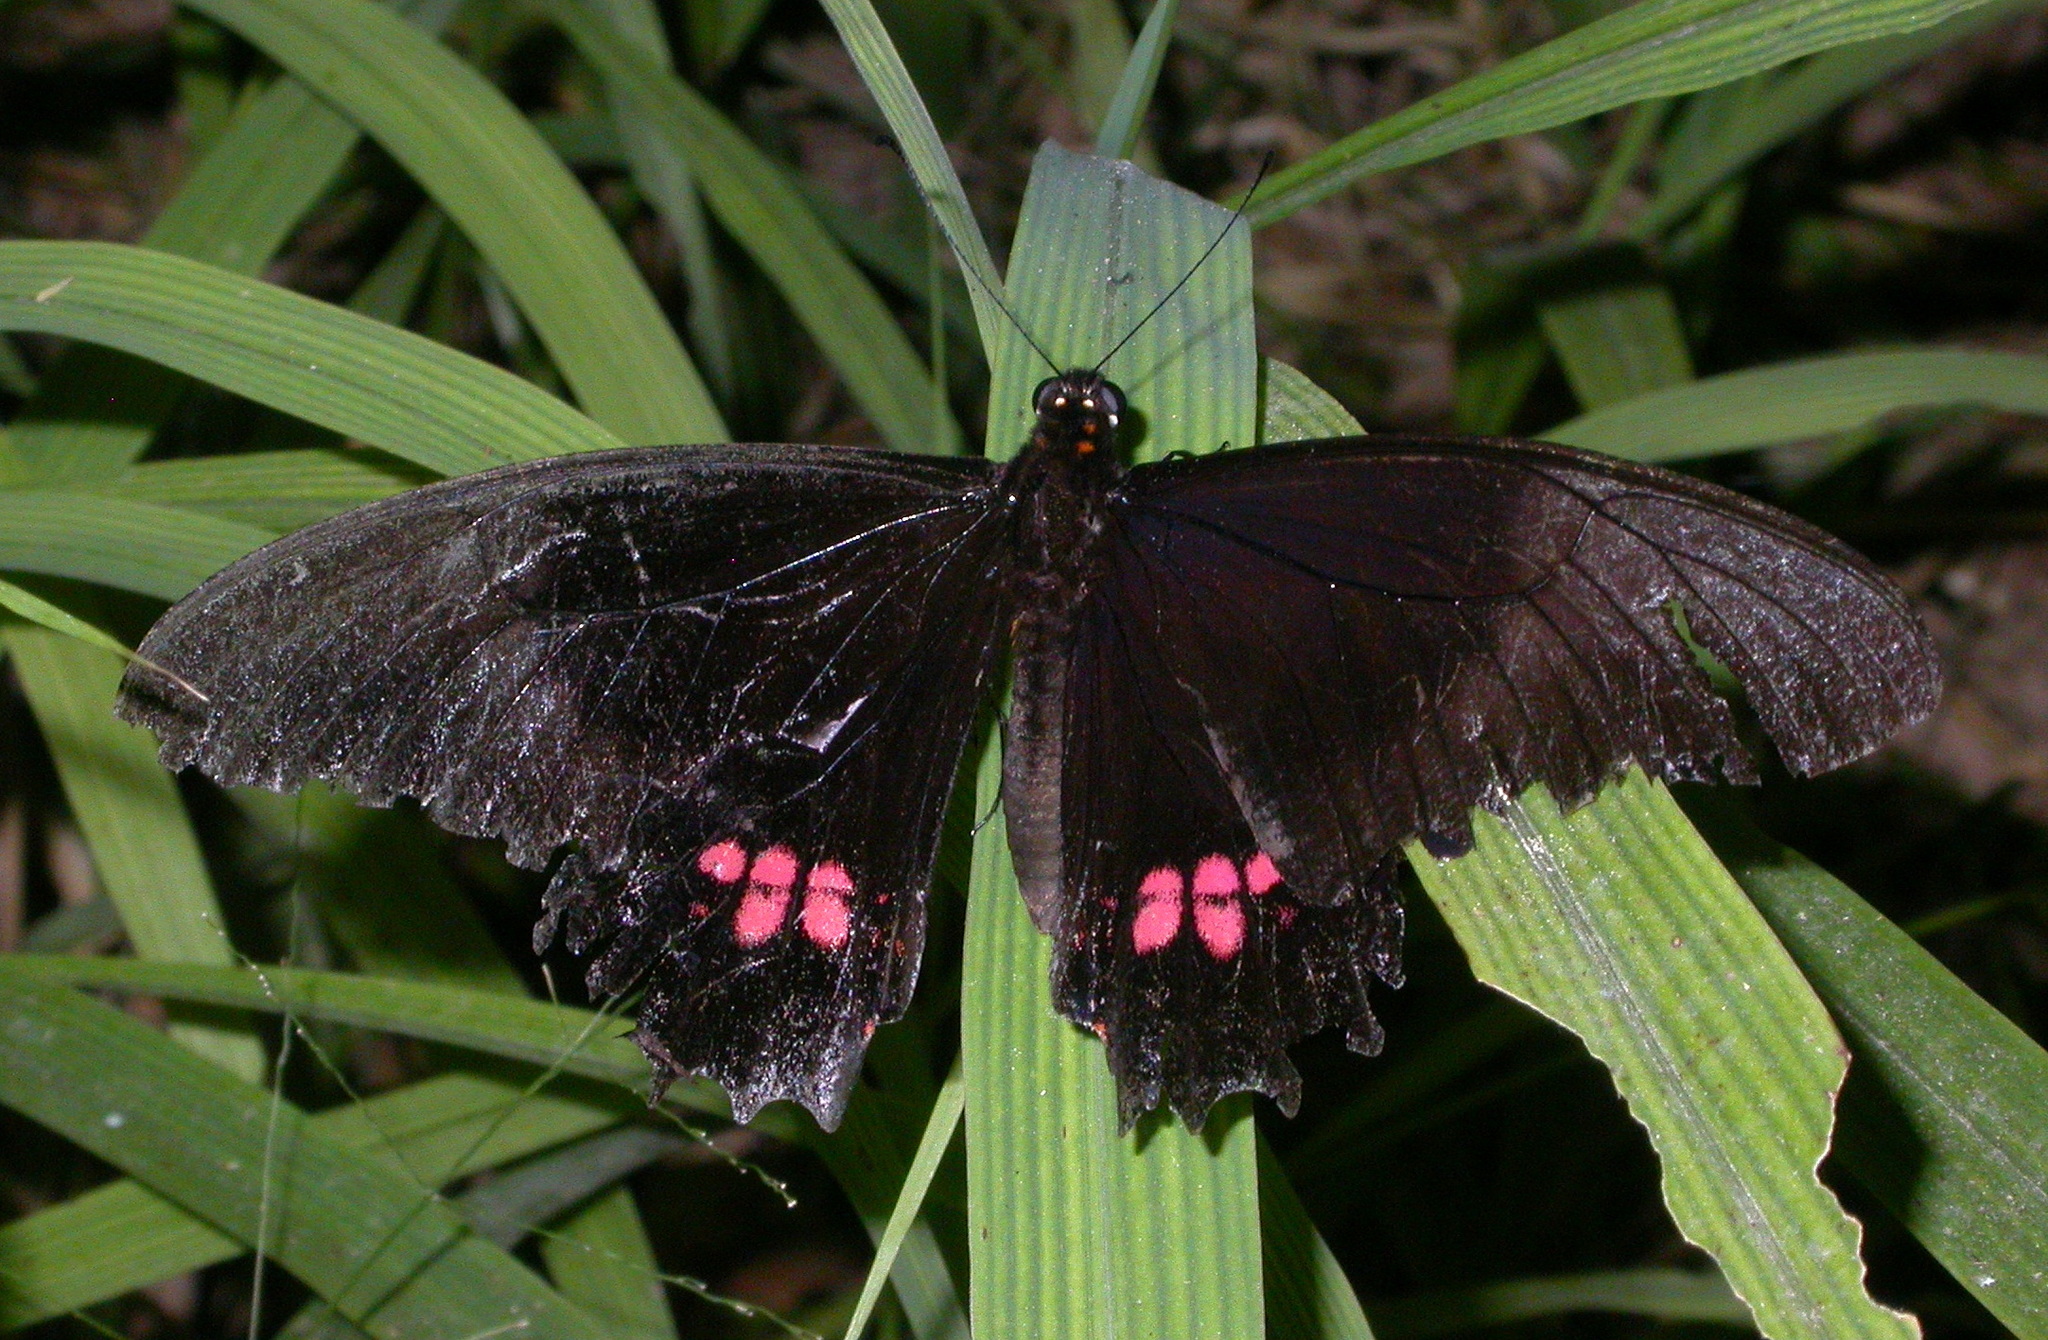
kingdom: Animalia
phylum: Arthropoda
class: Insecta
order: Lepidoptera
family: Papilionidae
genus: Papilio
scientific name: Papilio anchisiades
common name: Idaes swallowtail
